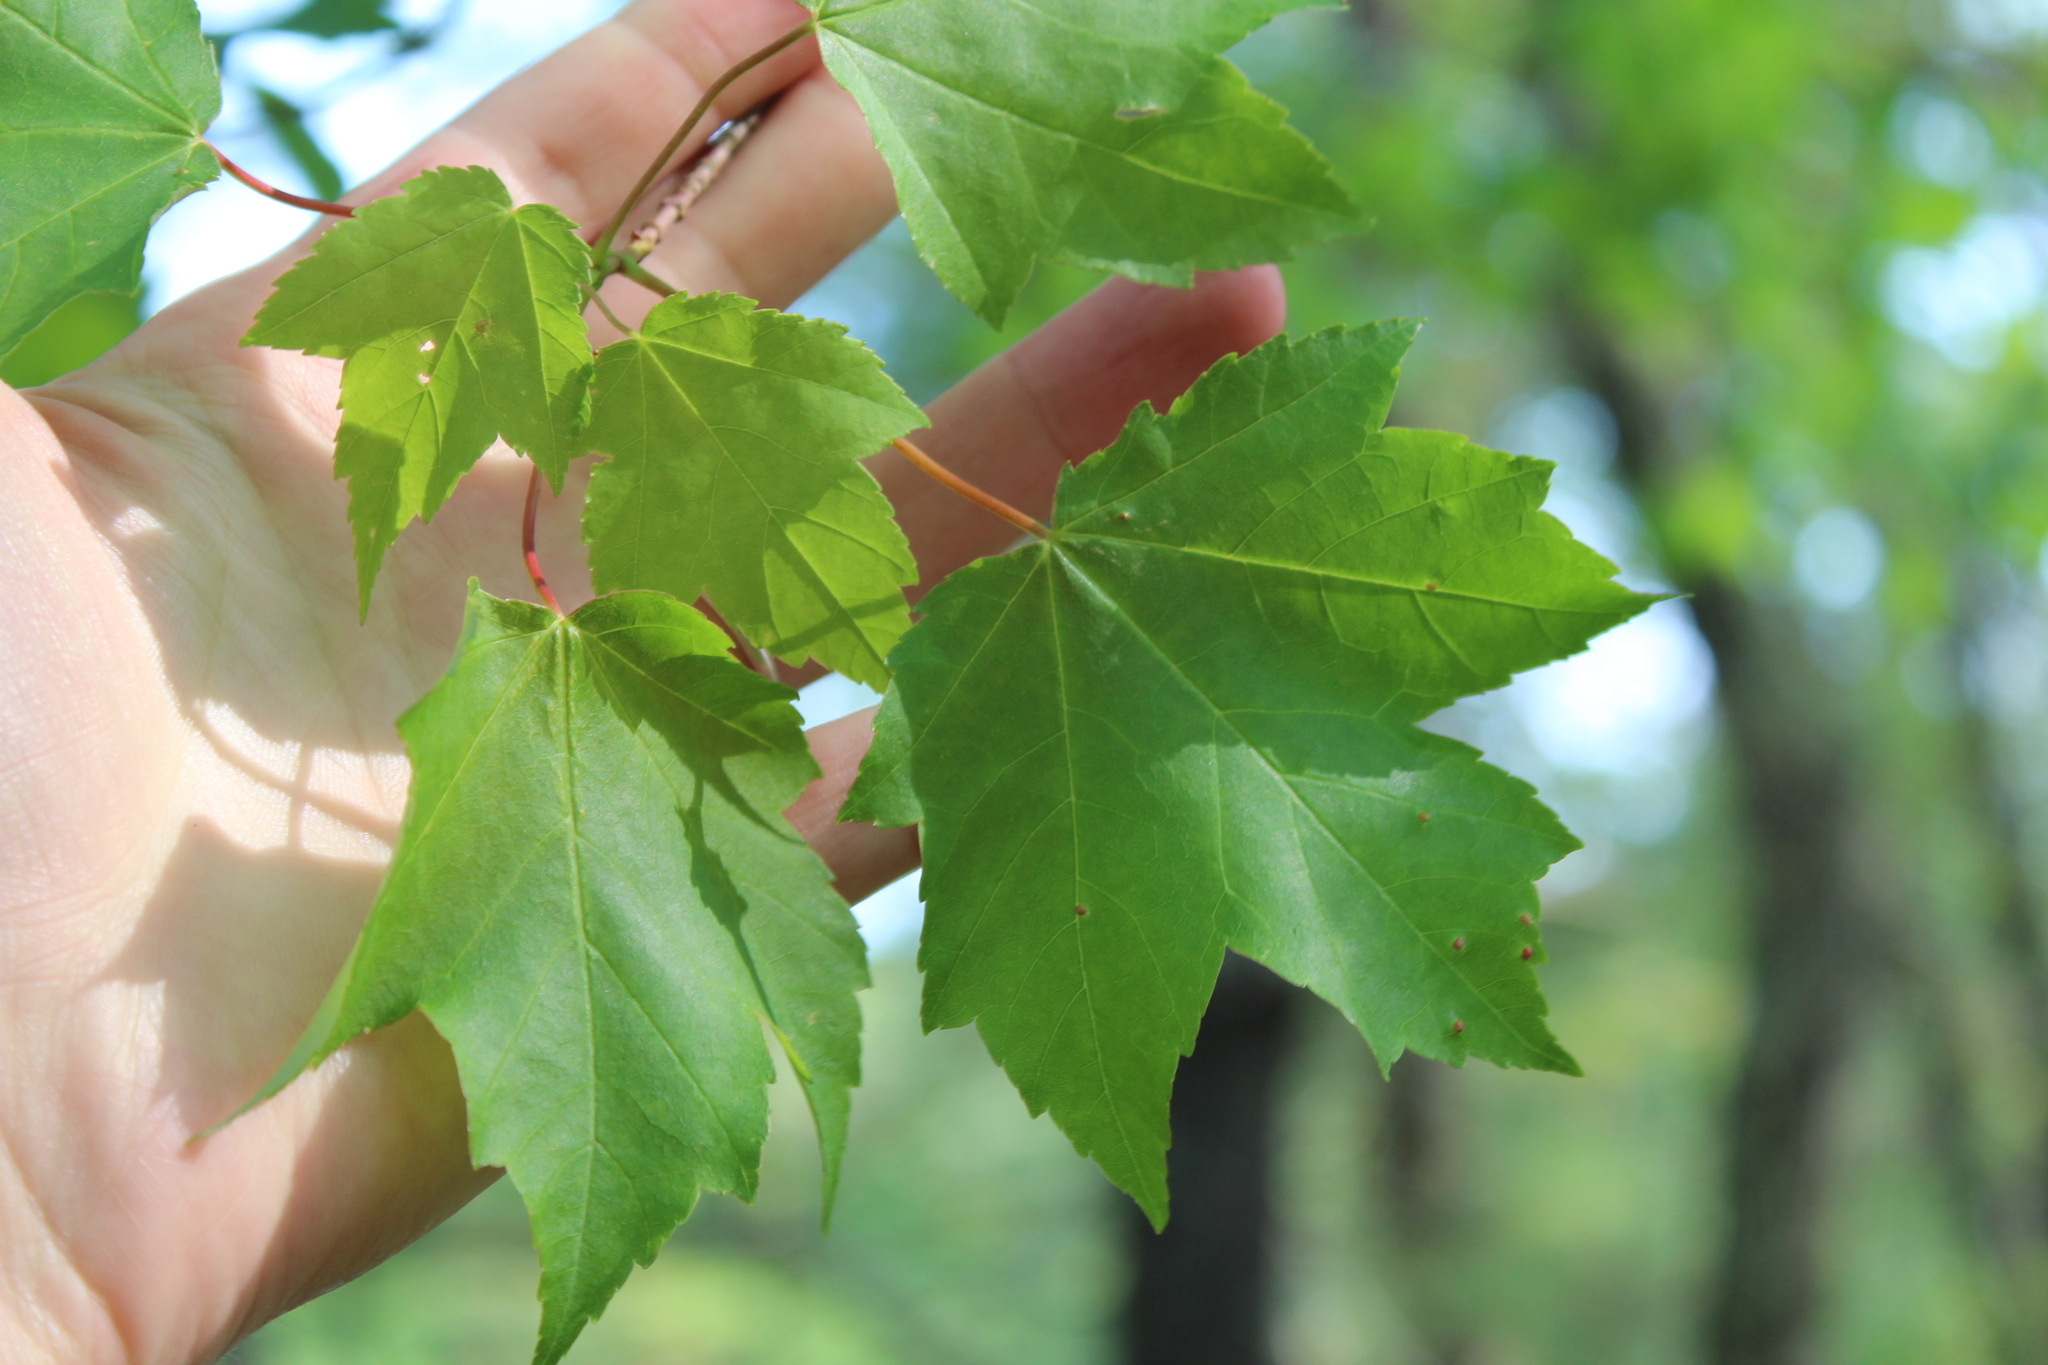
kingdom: Plantae
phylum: Tracheophyta
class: Magnoliopsida
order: Sapindales
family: Sapindaceae
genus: Acer
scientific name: Acer rubrum
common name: Red maple
